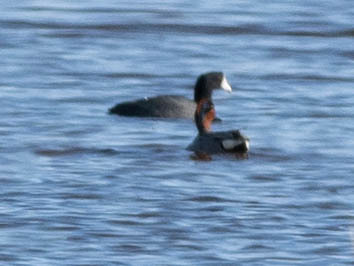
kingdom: Animalia
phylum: Chordata
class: Aves
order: Anseriformes
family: Anatidae
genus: Anas
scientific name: Anas crecca
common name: Eurasian teal
